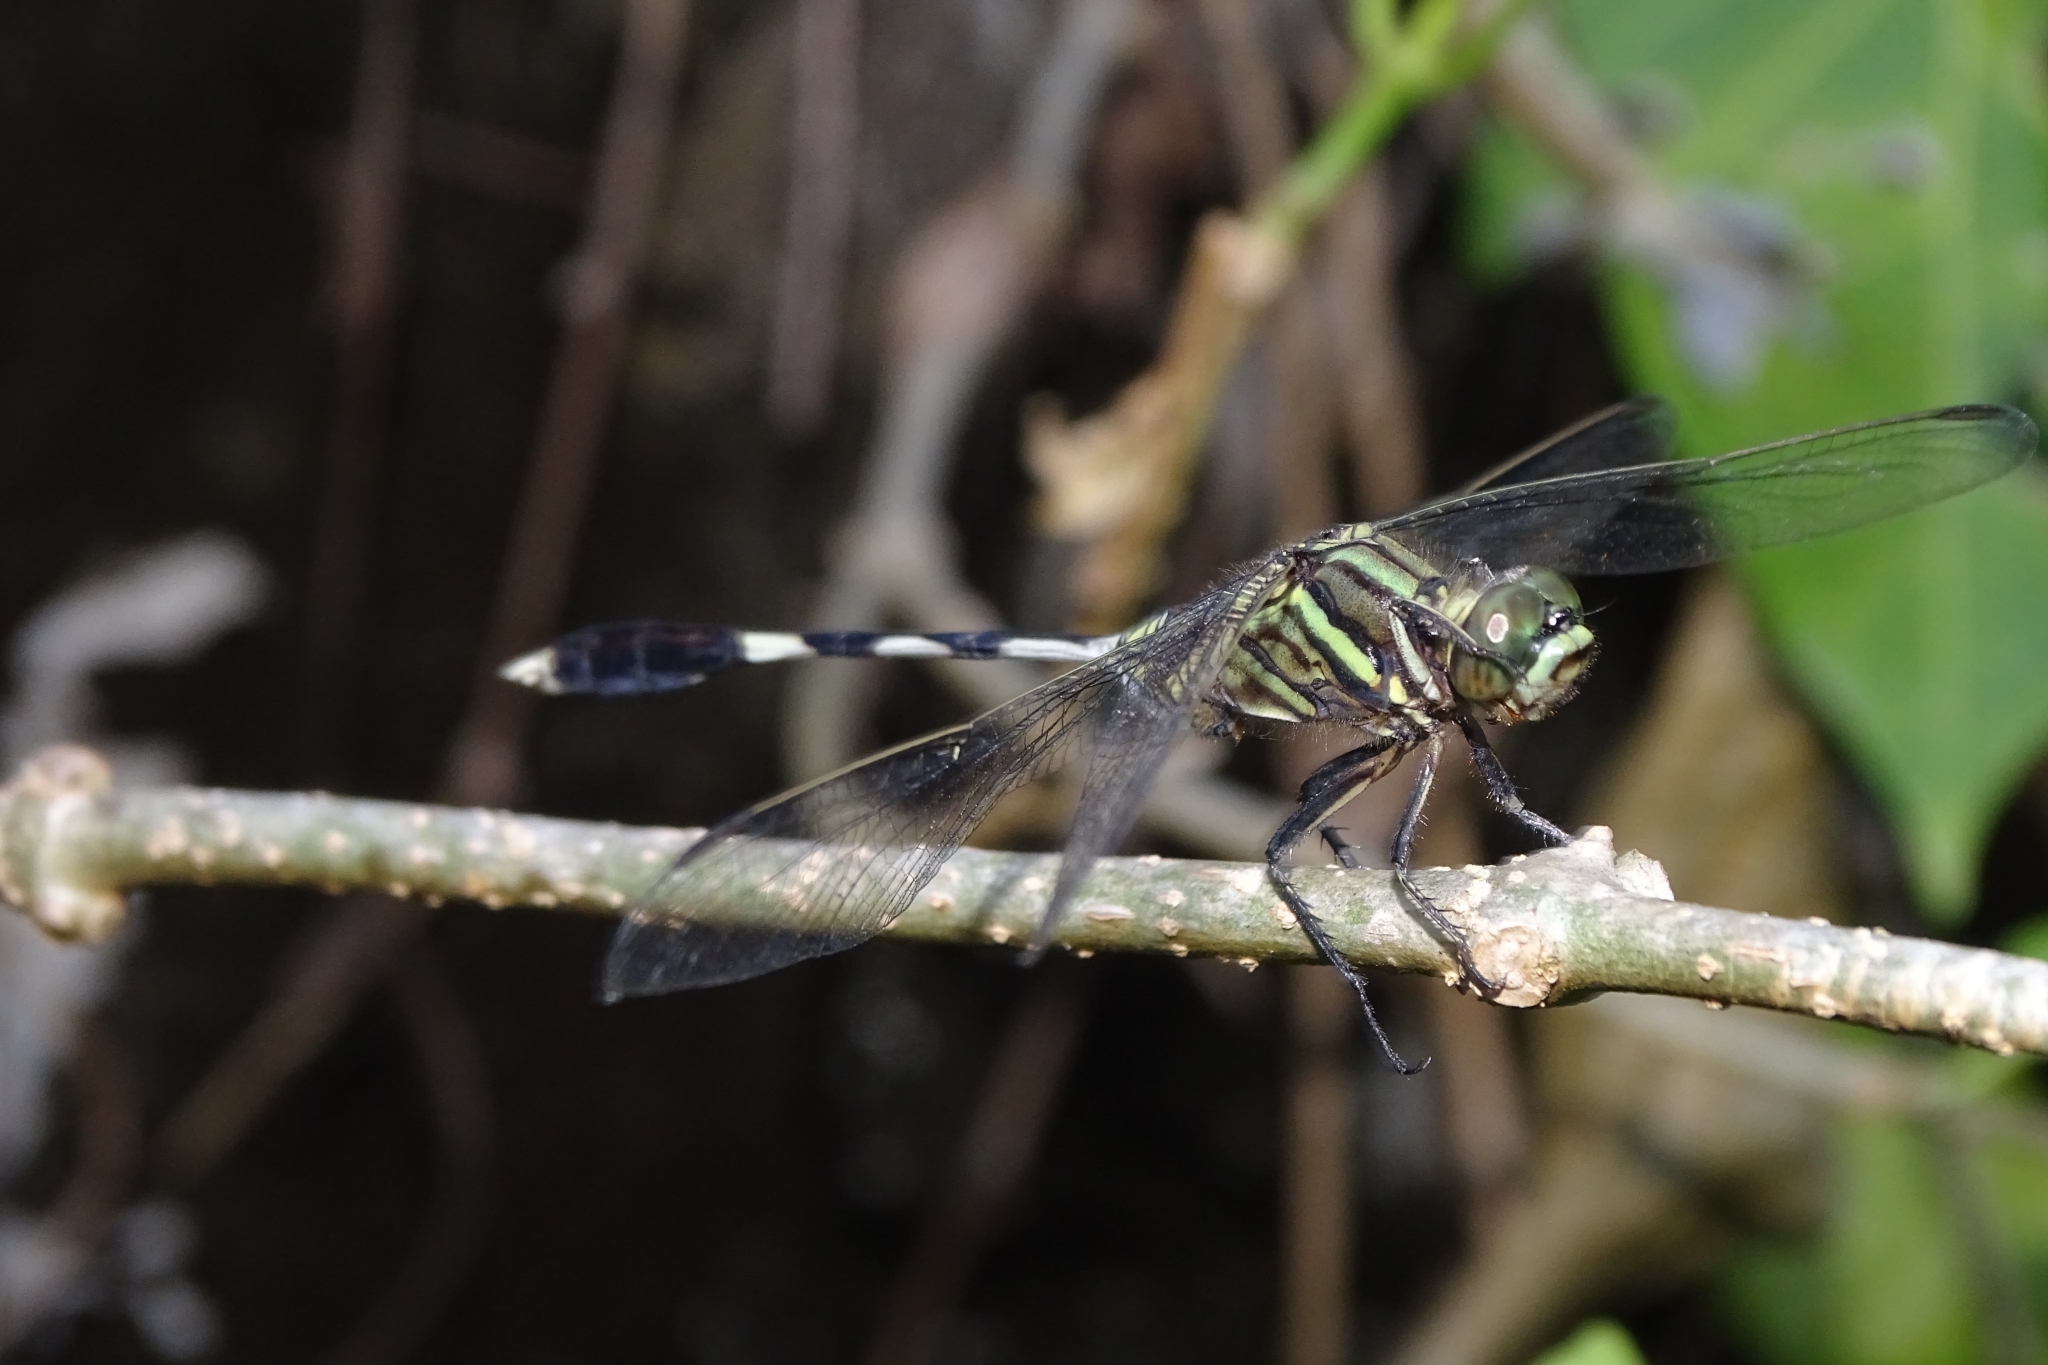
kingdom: Animalia
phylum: Arthropoda
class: Insecta
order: Odonata
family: Libellulidae
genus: Orthetrum
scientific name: Orthetrum sabina
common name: Slender skimmer
